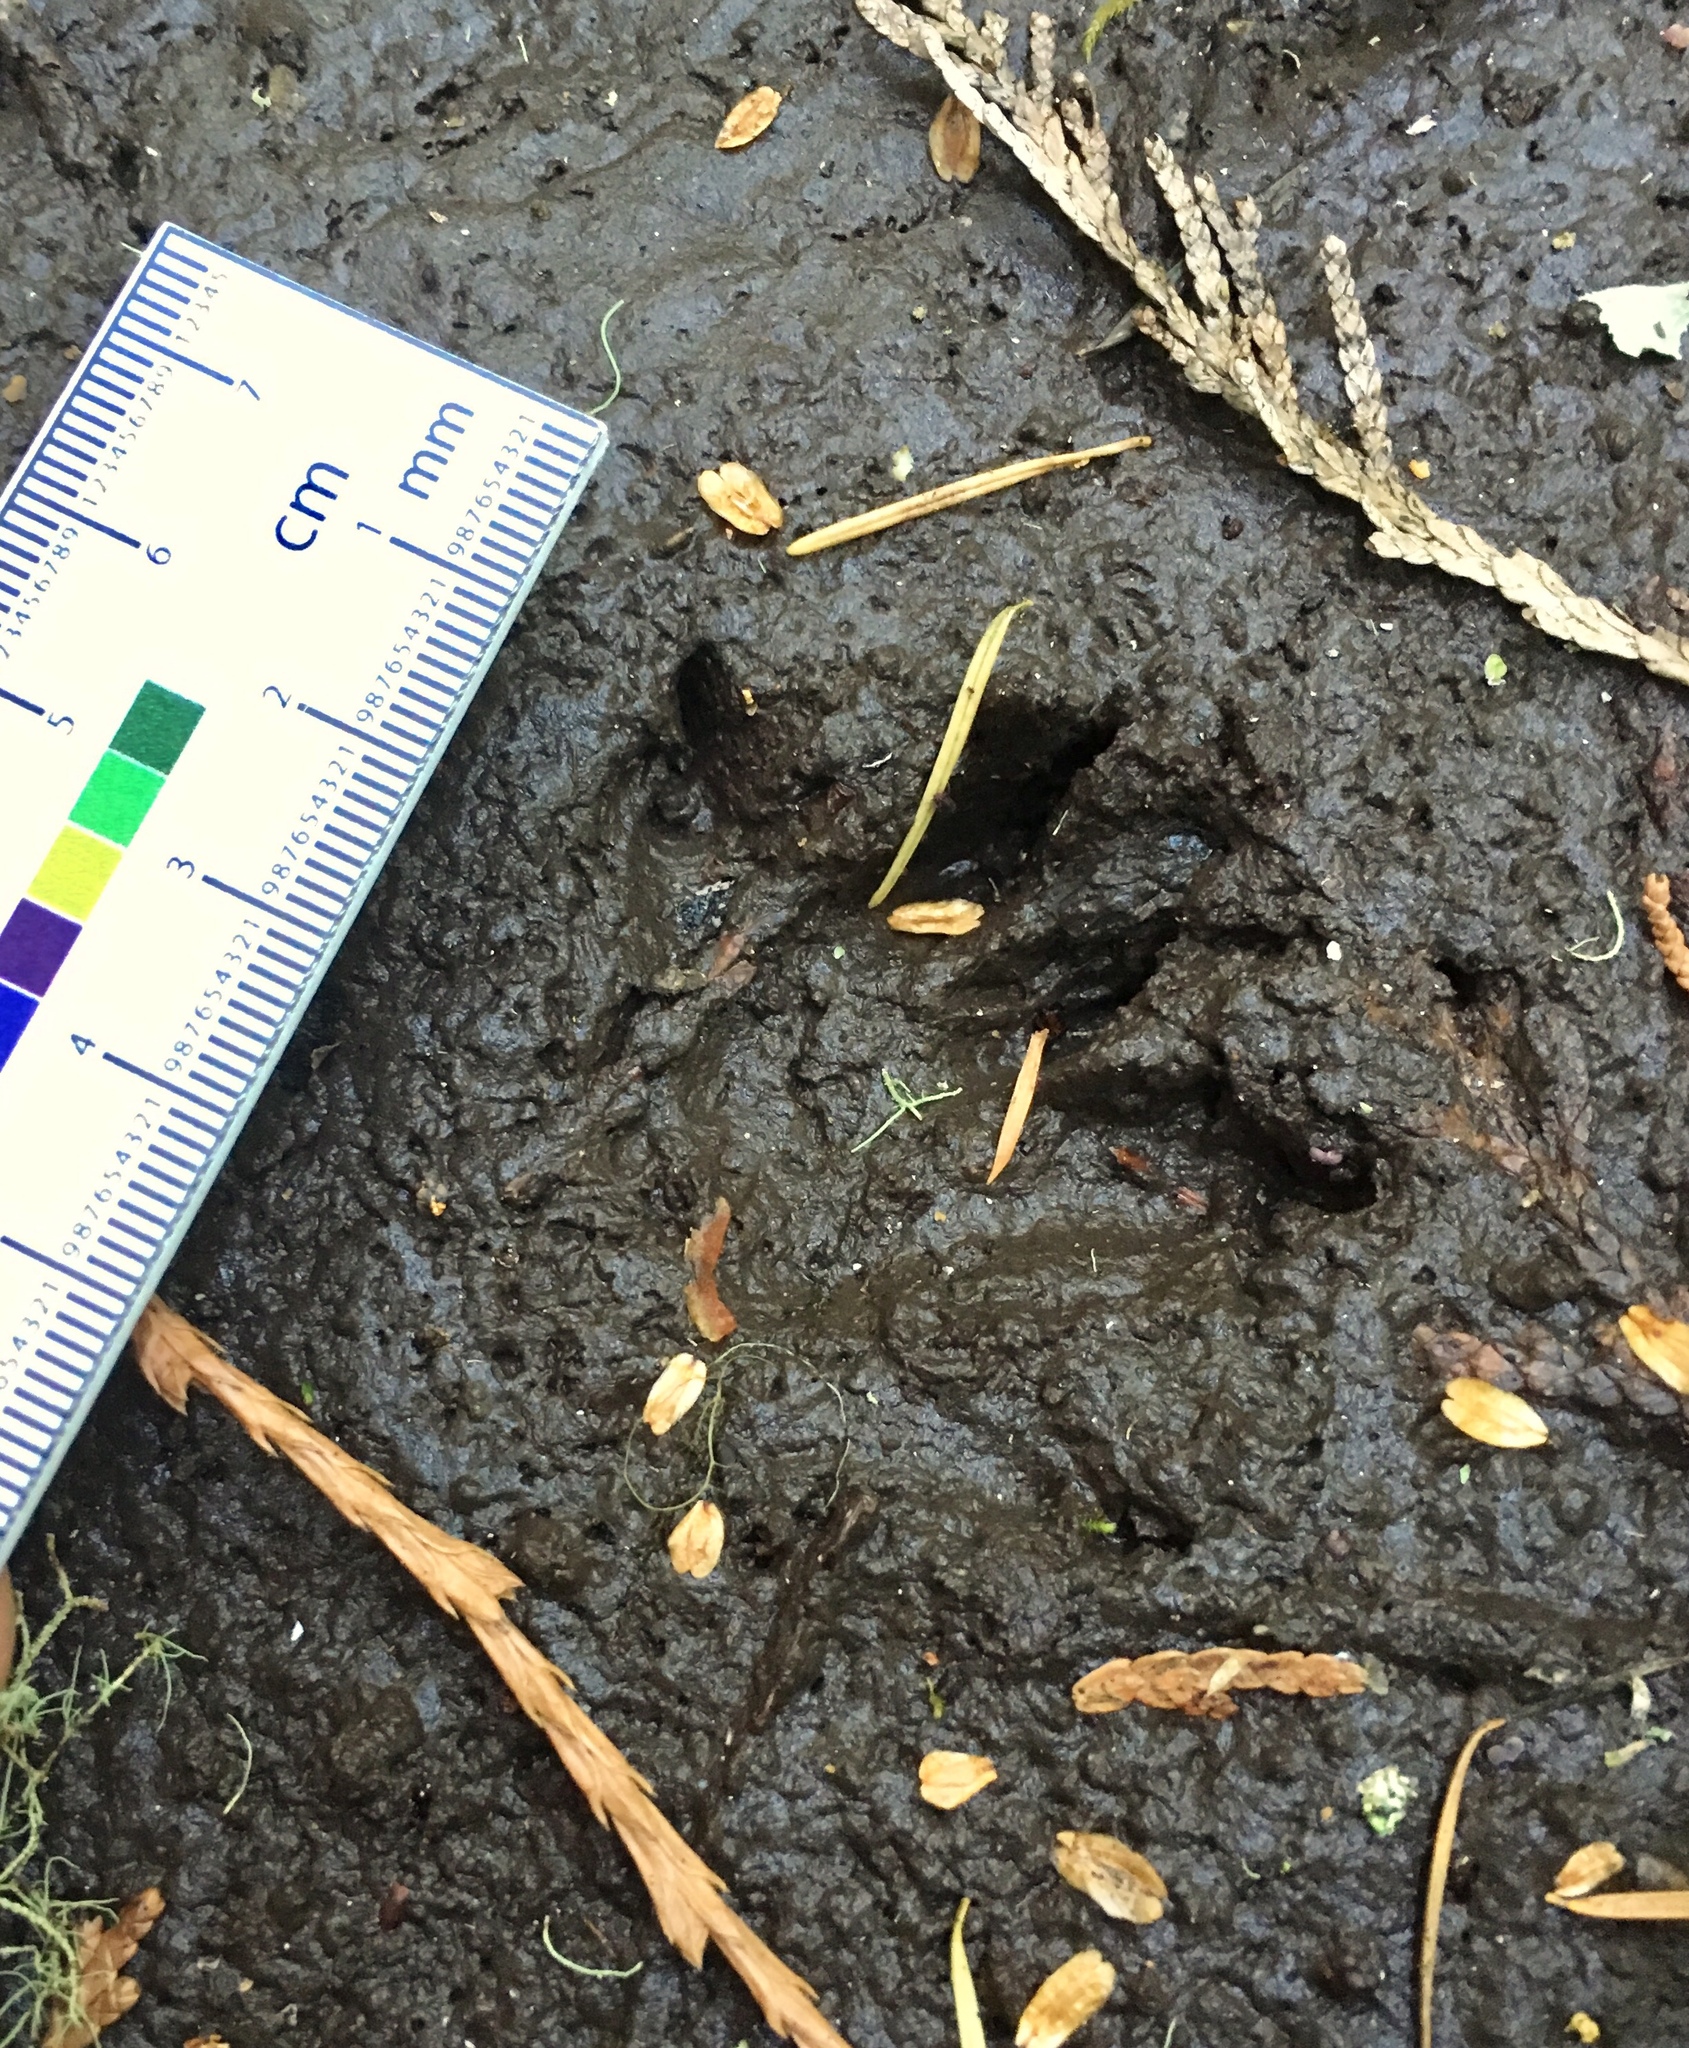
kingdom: Animalia
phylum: Chordata
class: Mammalia
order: Rodentia
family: Cricetidae
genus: Ondatra
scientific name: Ondatra zibethicus
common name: Muskrat
